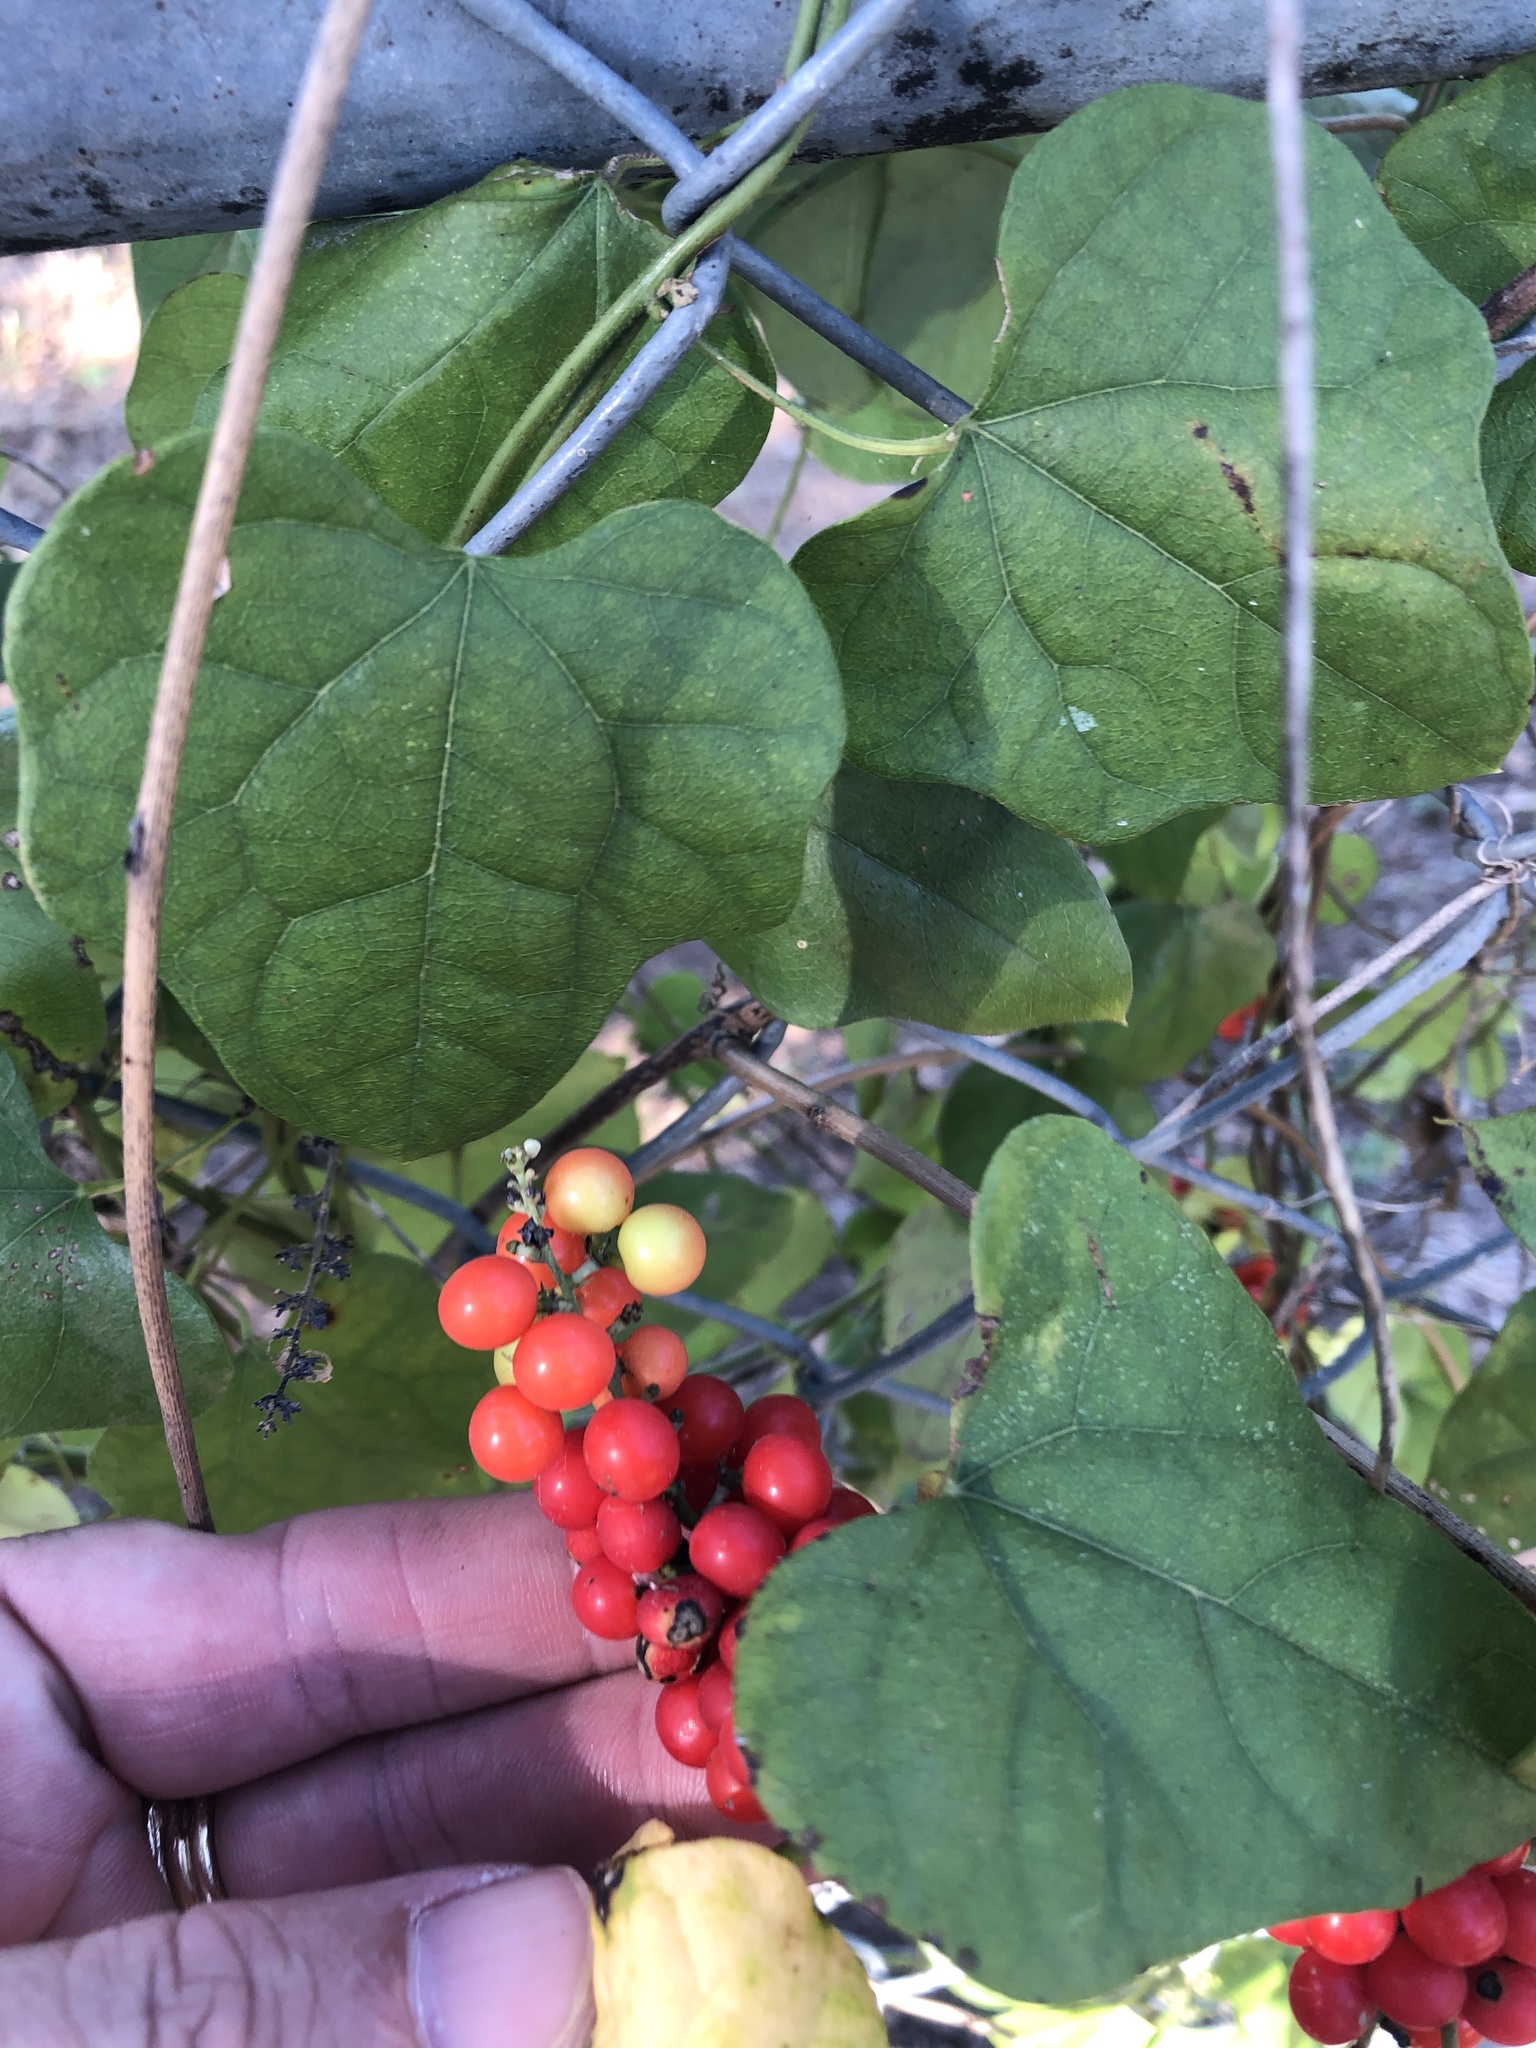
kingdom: Plantae
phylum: Tracheophyta
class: Magnoliopsida
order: Ranunculales
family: Menispermaceae
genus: Cocculus
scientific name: Cocculus carolinus
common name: Carolina moonseed
